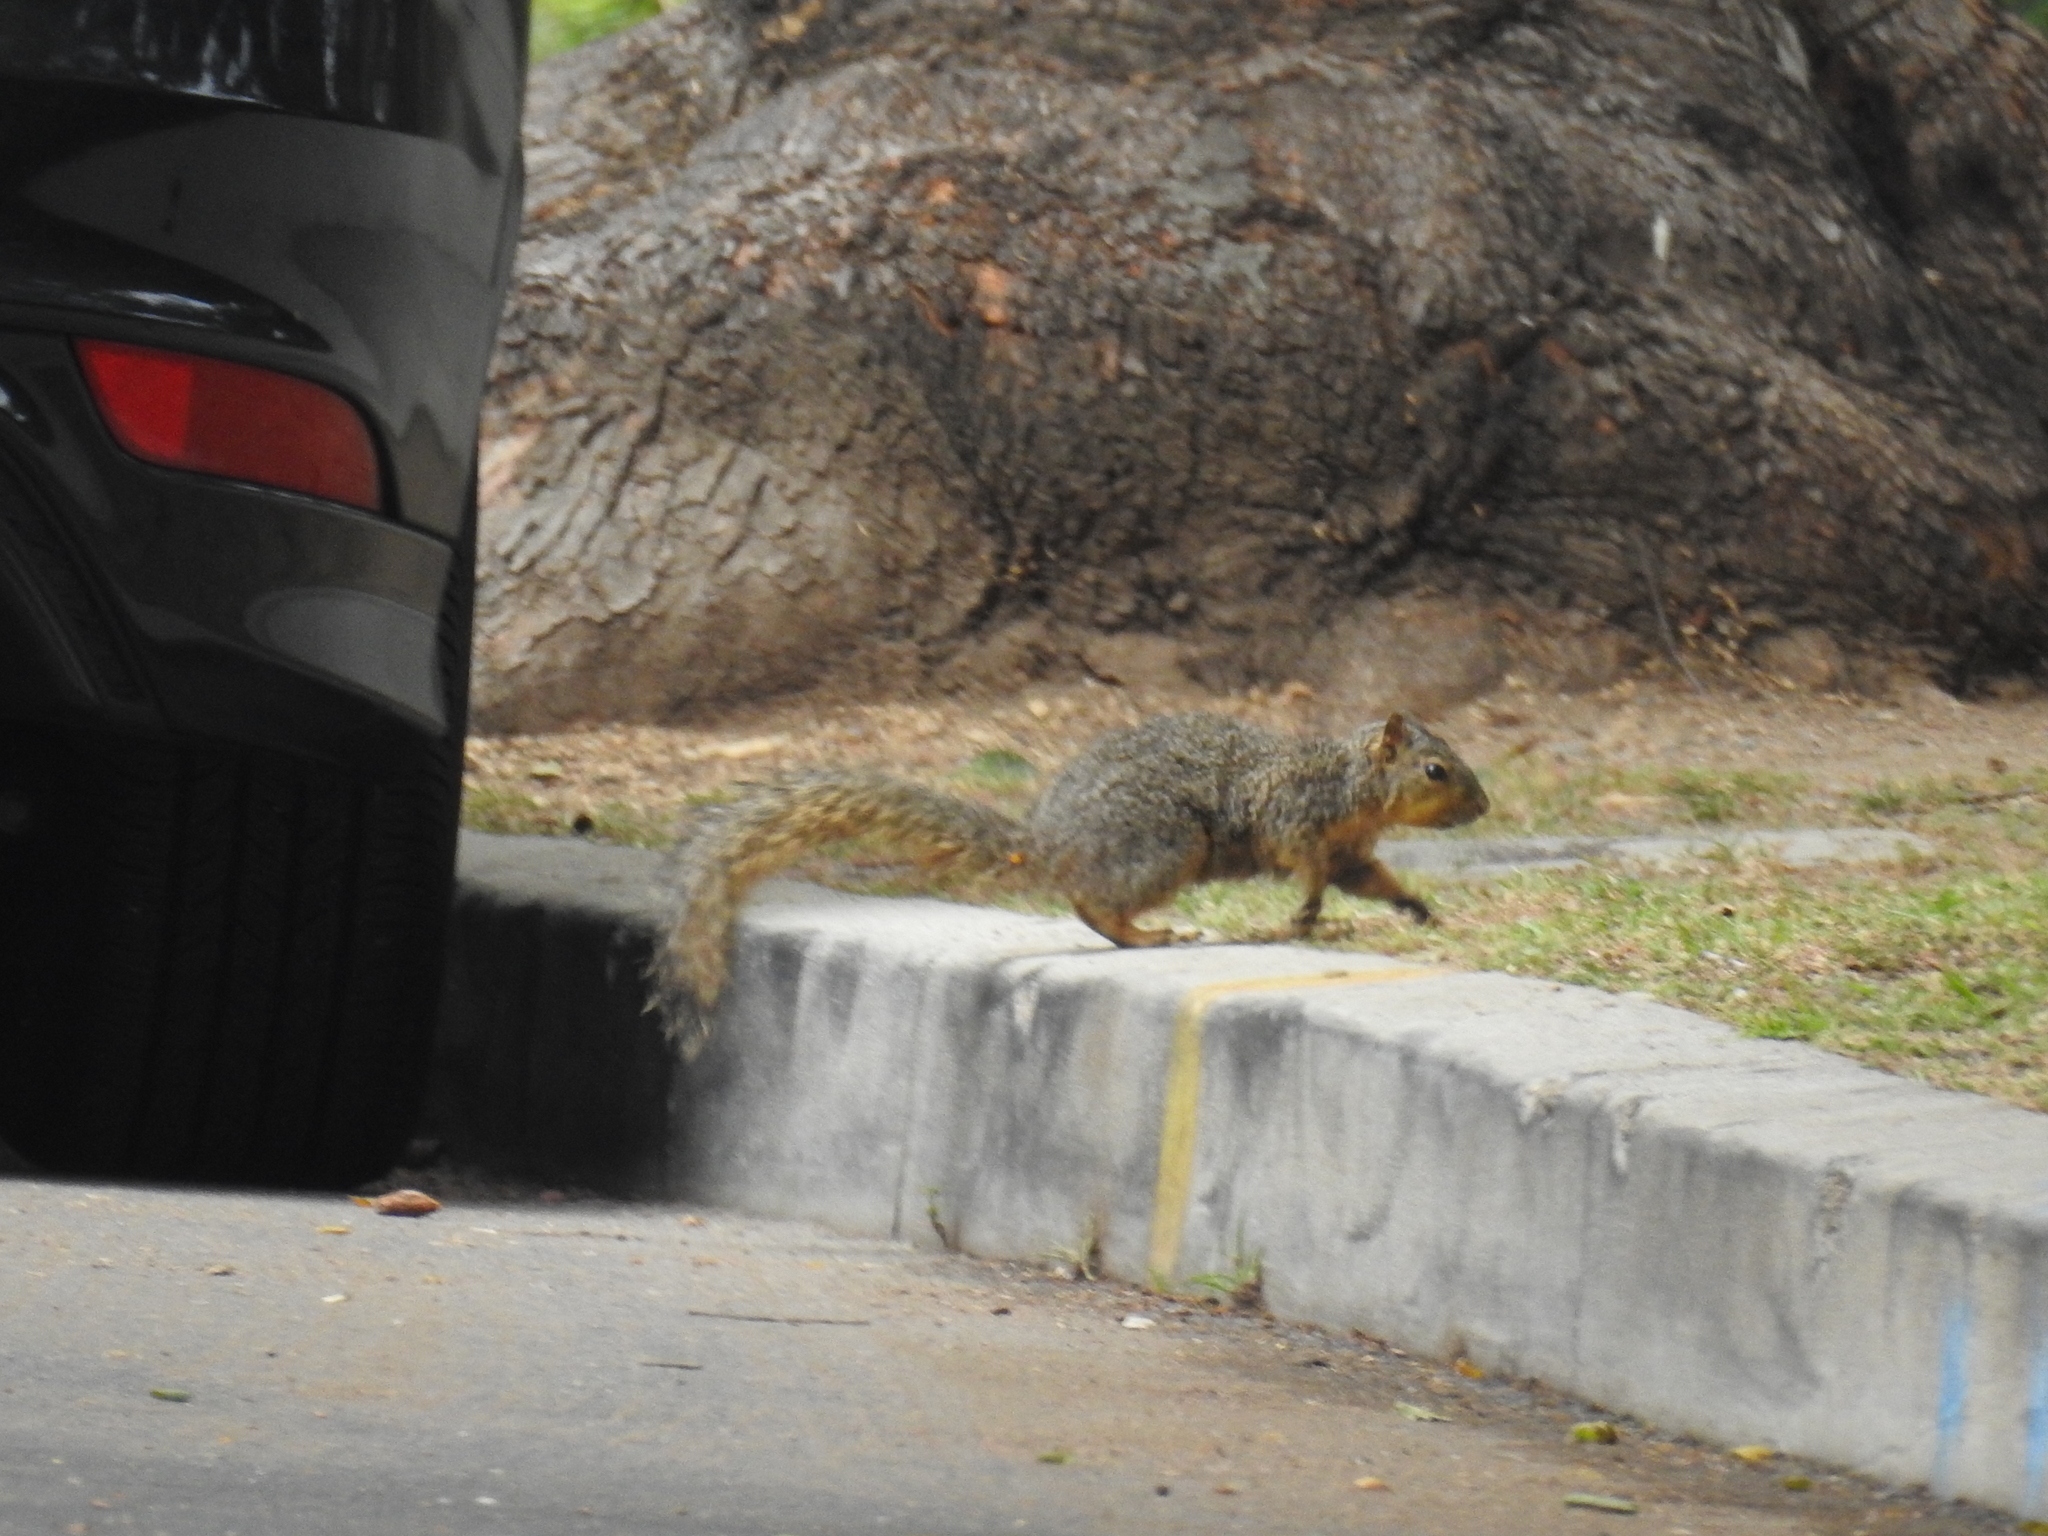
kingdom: Animalia
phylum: Chordata
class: Mammalia
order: Rodentia
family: Sciuridae
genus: Sciurus
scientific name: Sciurus niger
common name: Fox squirrel
